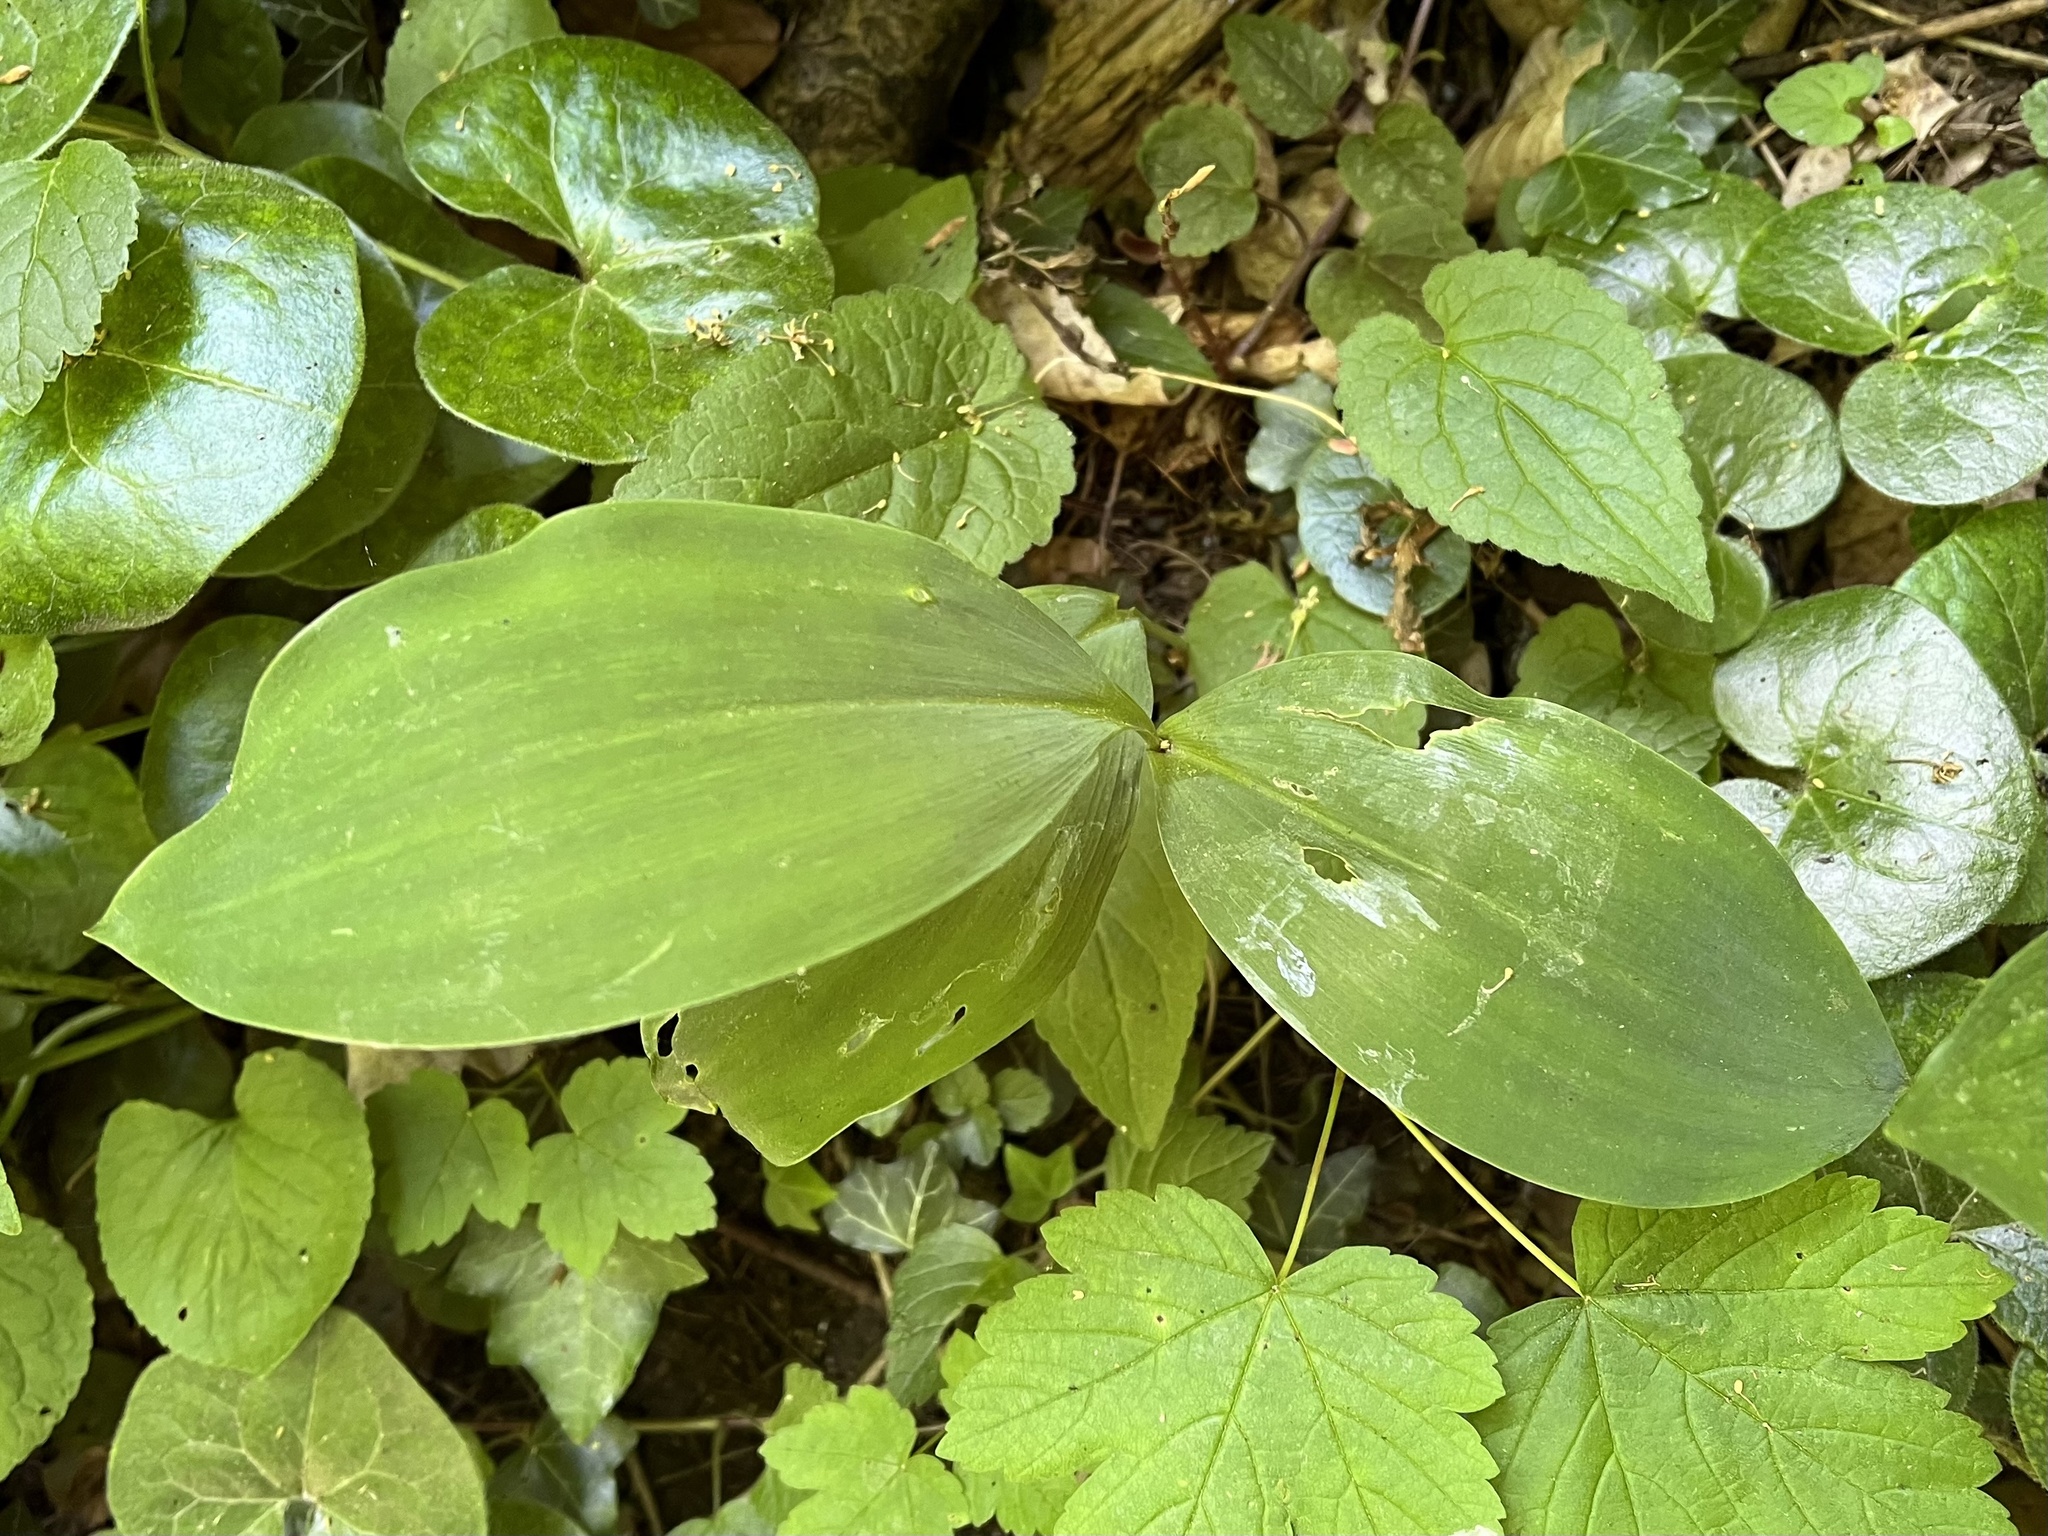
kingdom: Plantae
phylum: Tracheophyta
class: Liliopsida
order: Asparagales
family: Asparagaceae
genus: Convallaria
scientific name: Convallaria majalis
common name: Lily-of-the-valley
